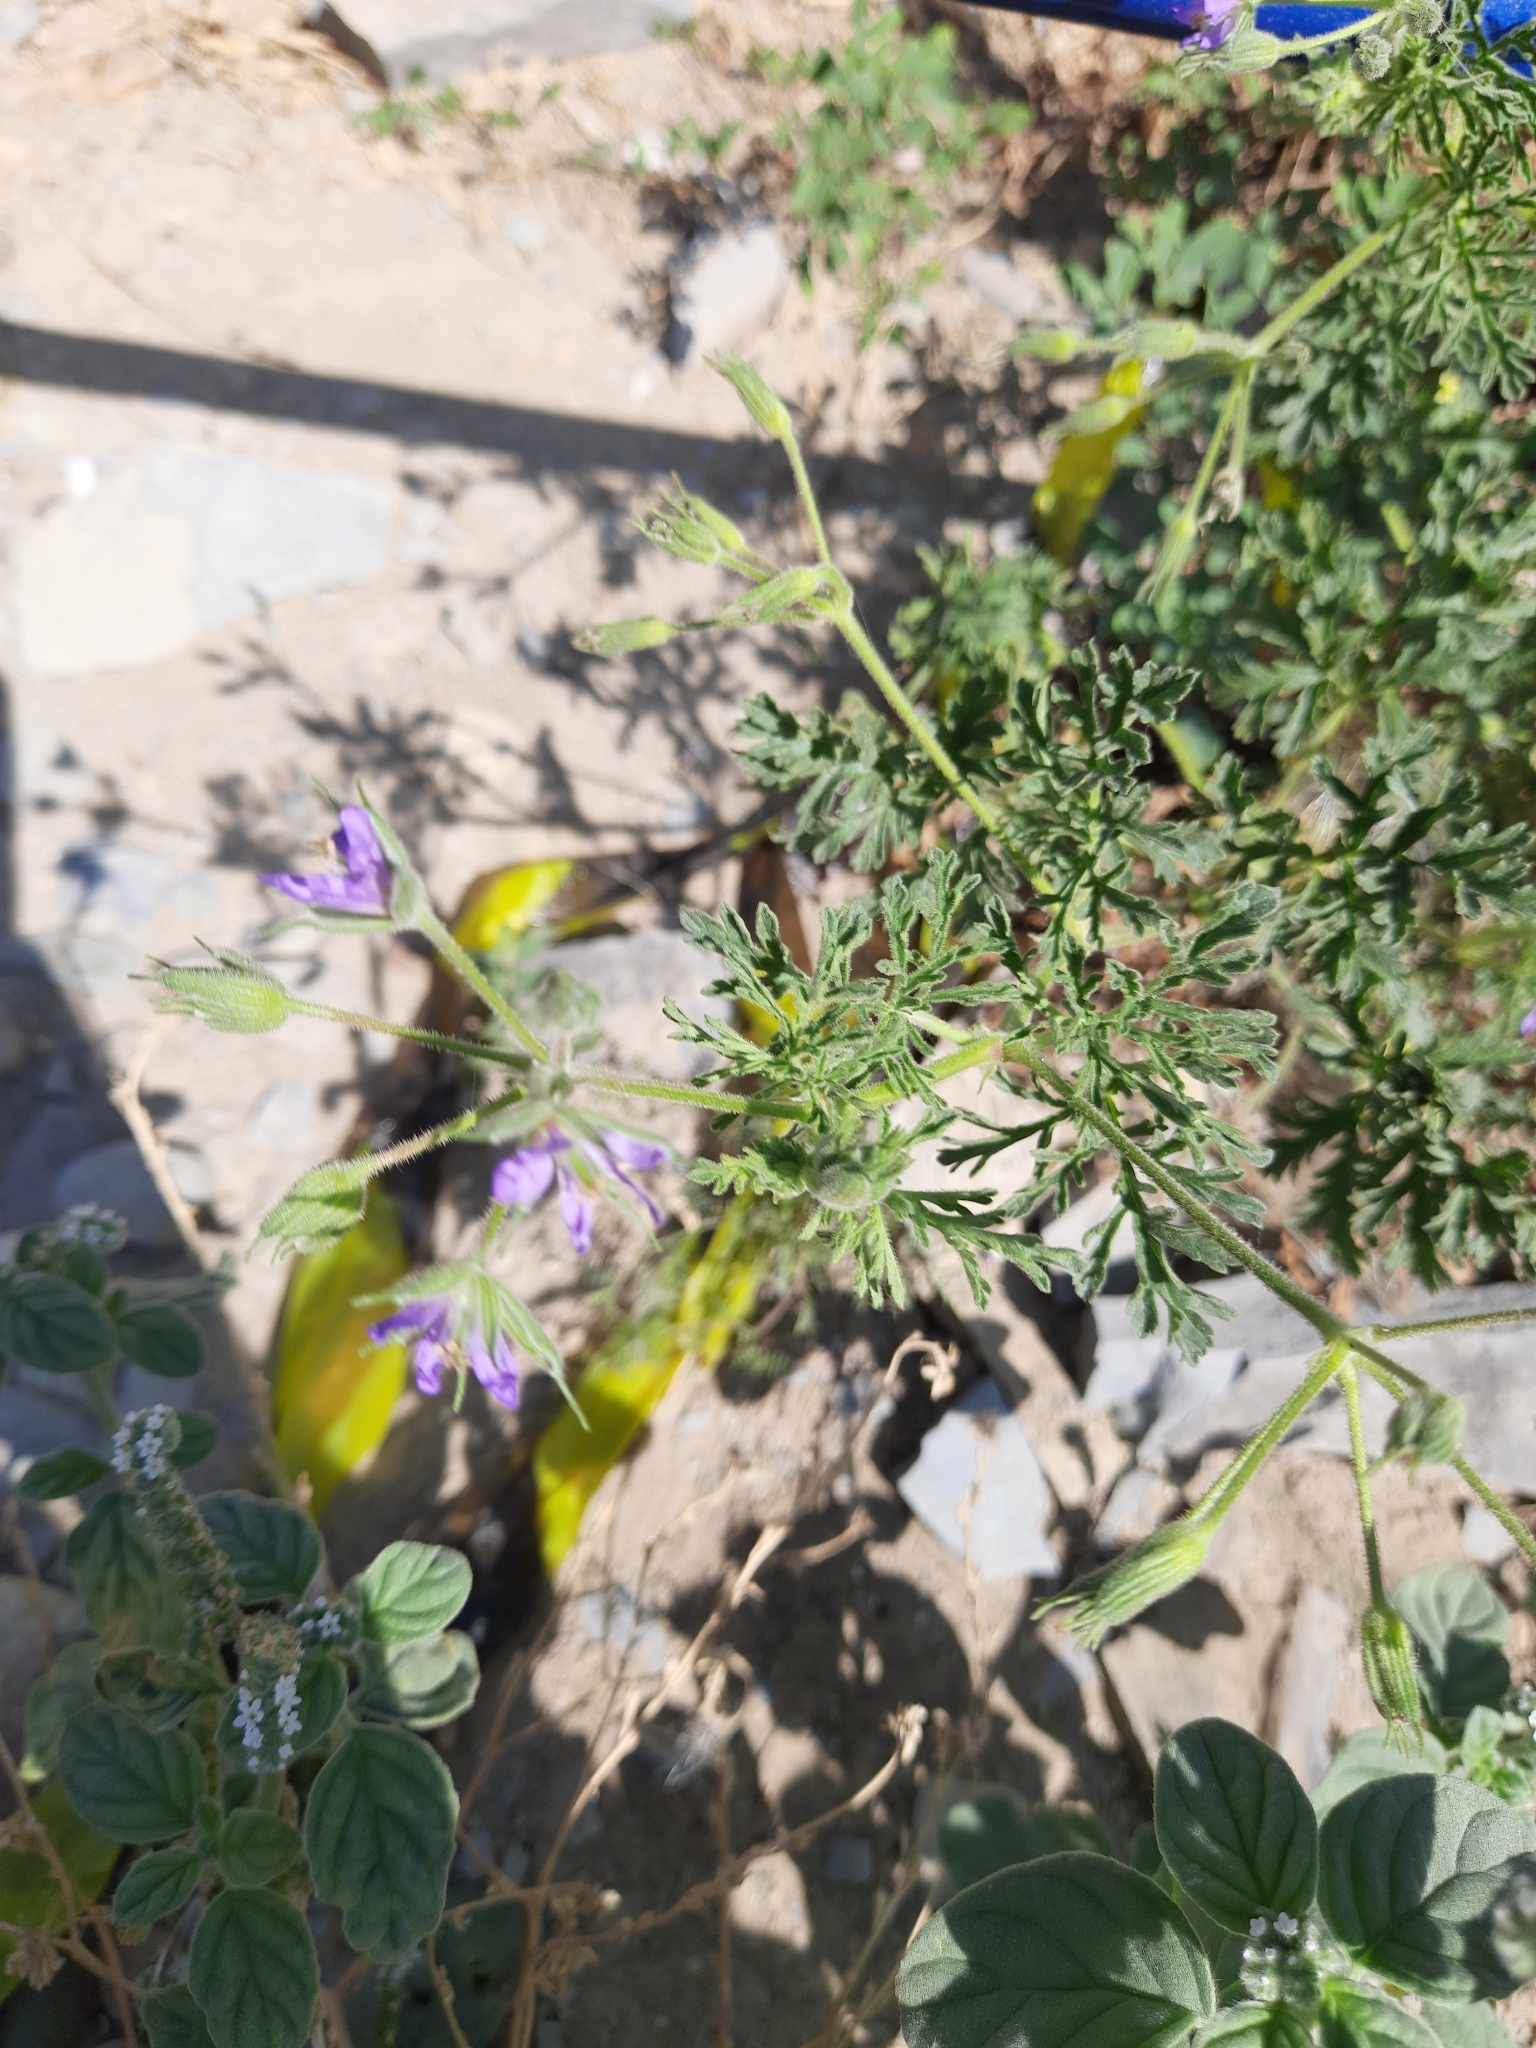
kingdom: Plantae
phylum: Tracheophyta
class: Magnoliopsida
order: Geraniales
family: Geraniaceae
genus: Erodium
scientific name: Erodium ciconium
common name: Common stork's bill
